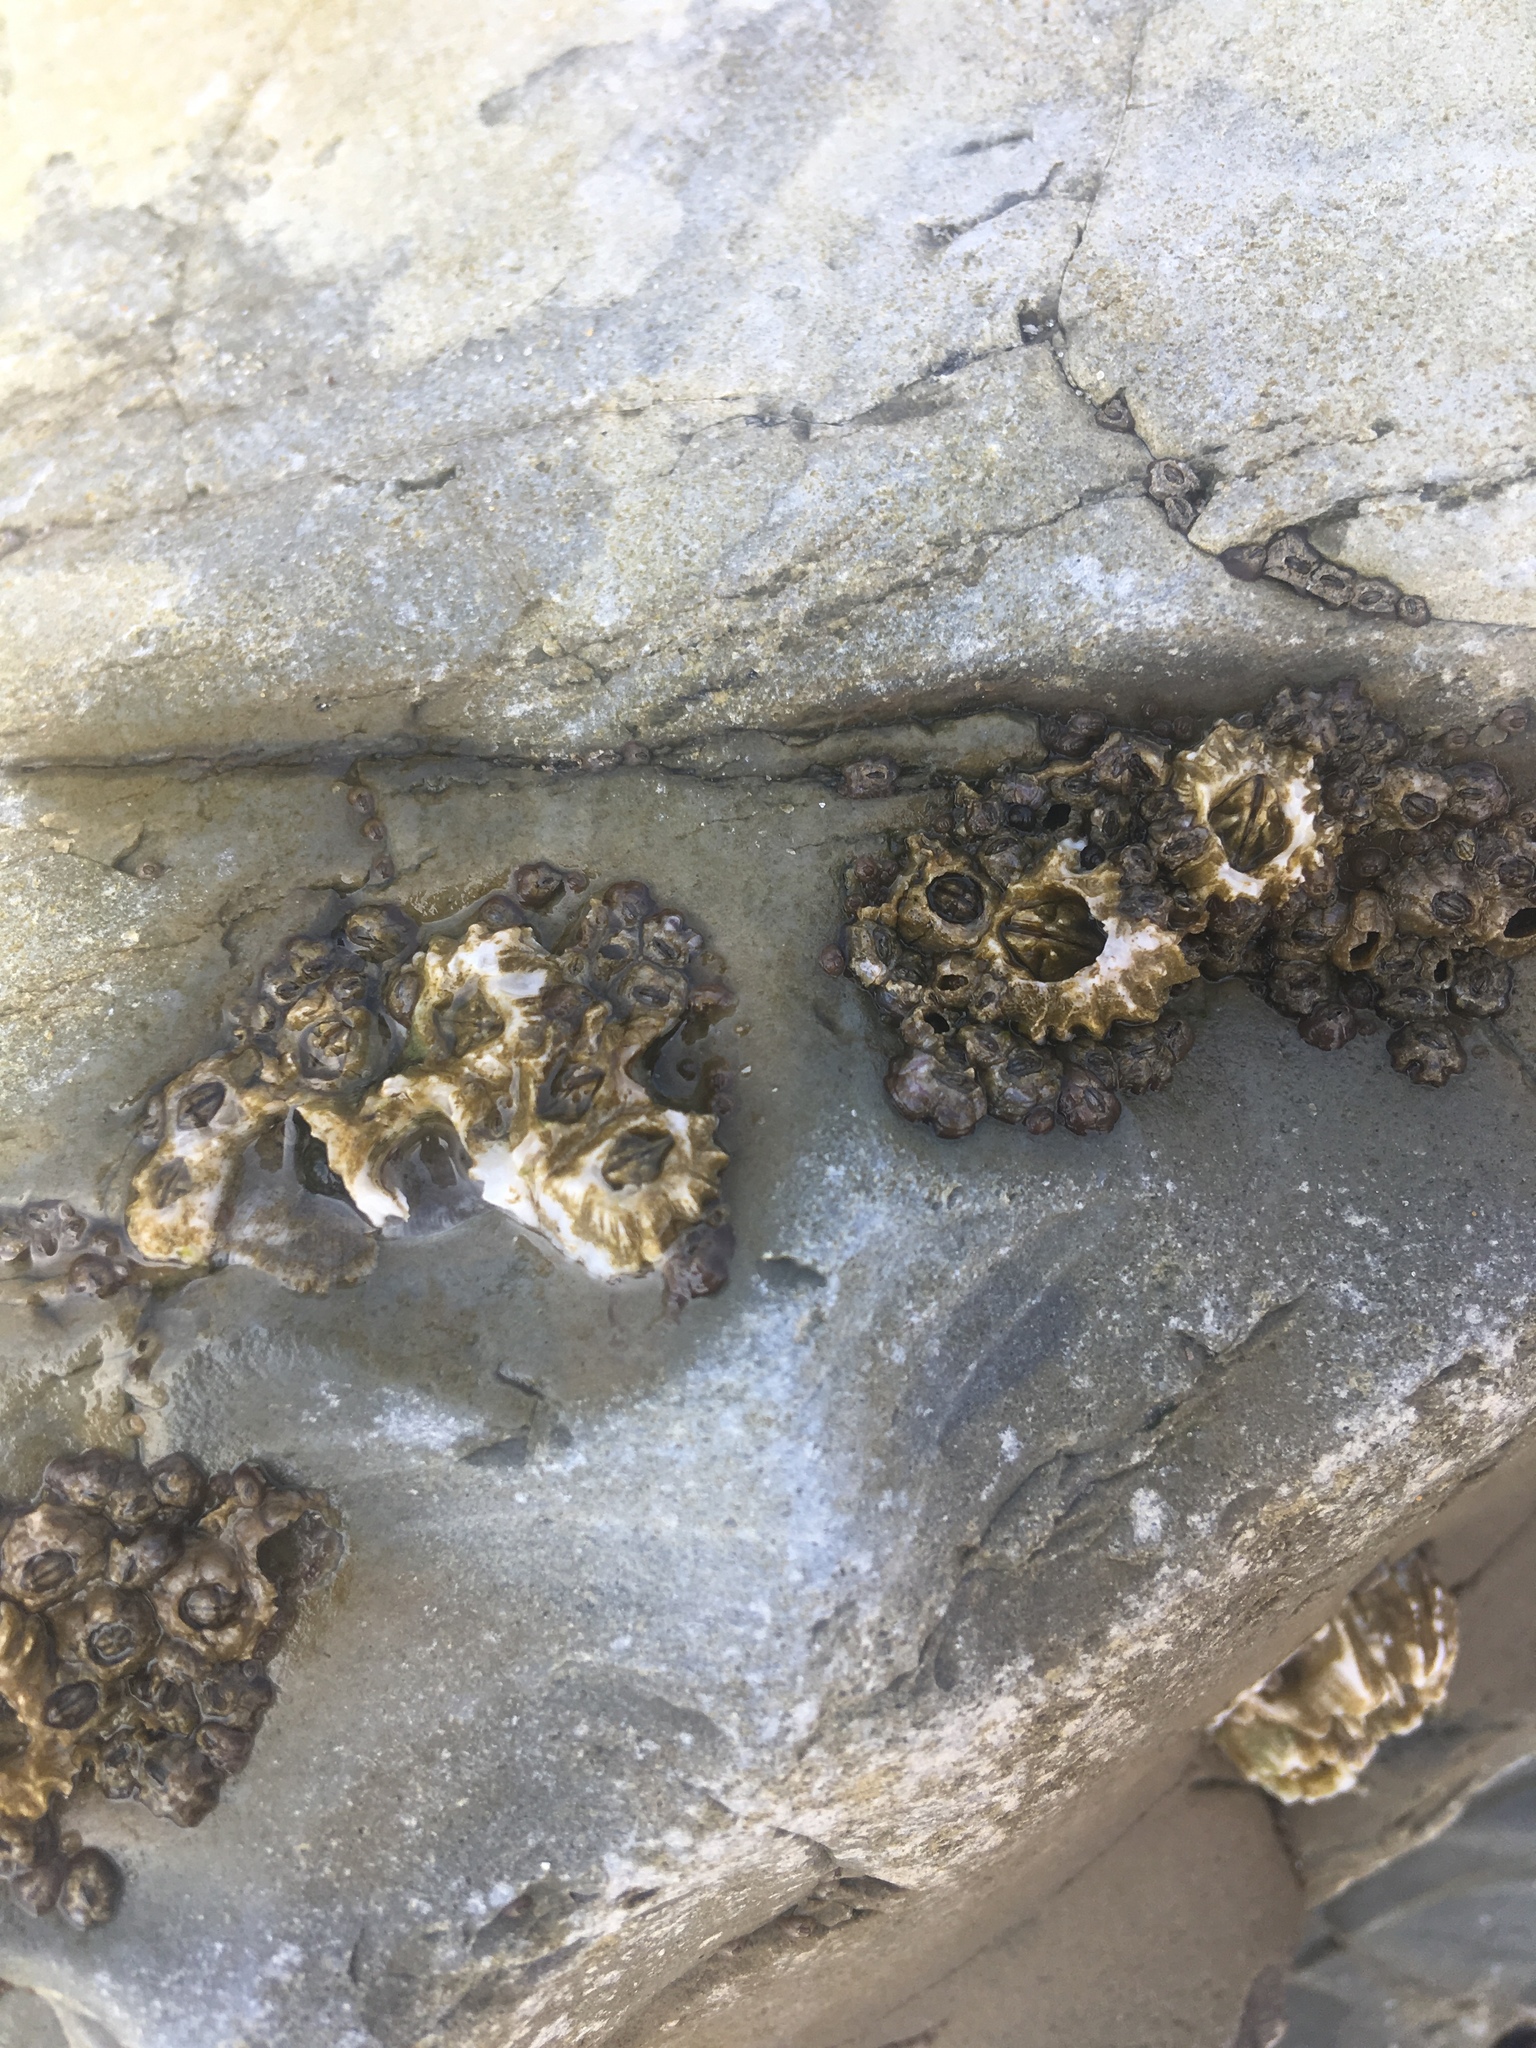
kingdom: Animalia
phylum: Arthropoda
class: Maxillopoda
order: Sessilia
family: Balanidae
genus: Balanus
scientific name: Balanus glandula
